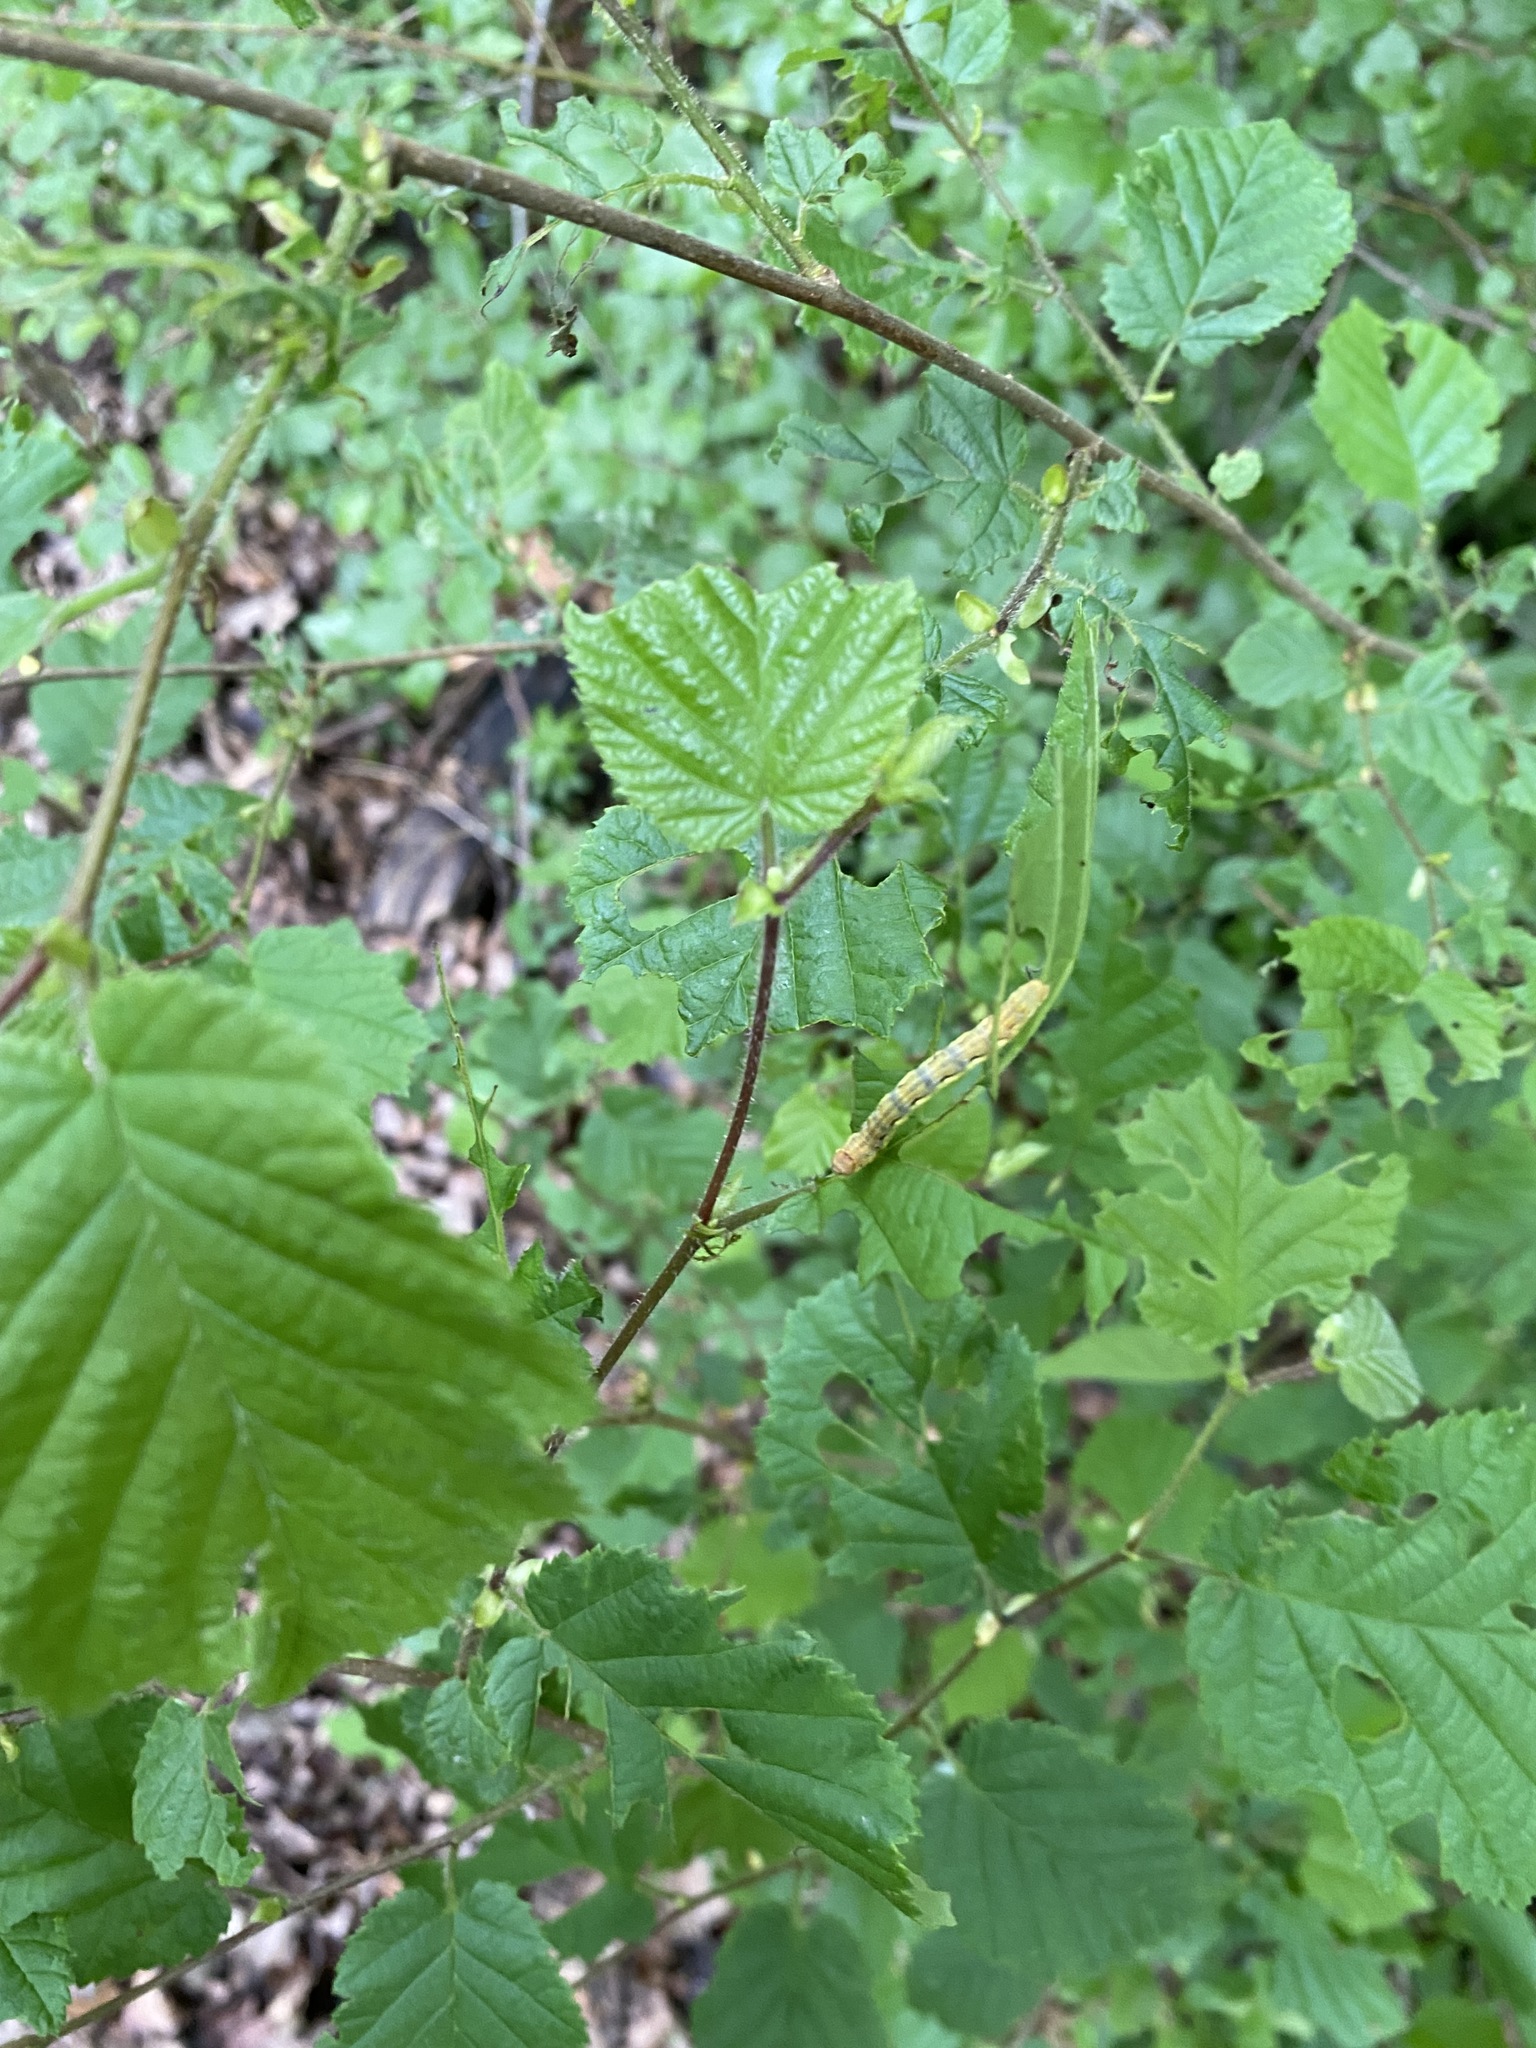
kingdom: Plantae
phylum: Tracheophyta
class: Magnoliopsida
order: Fagales
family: Betulaceae
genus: Corylus
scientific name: Corylus avellana
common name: European hazel
